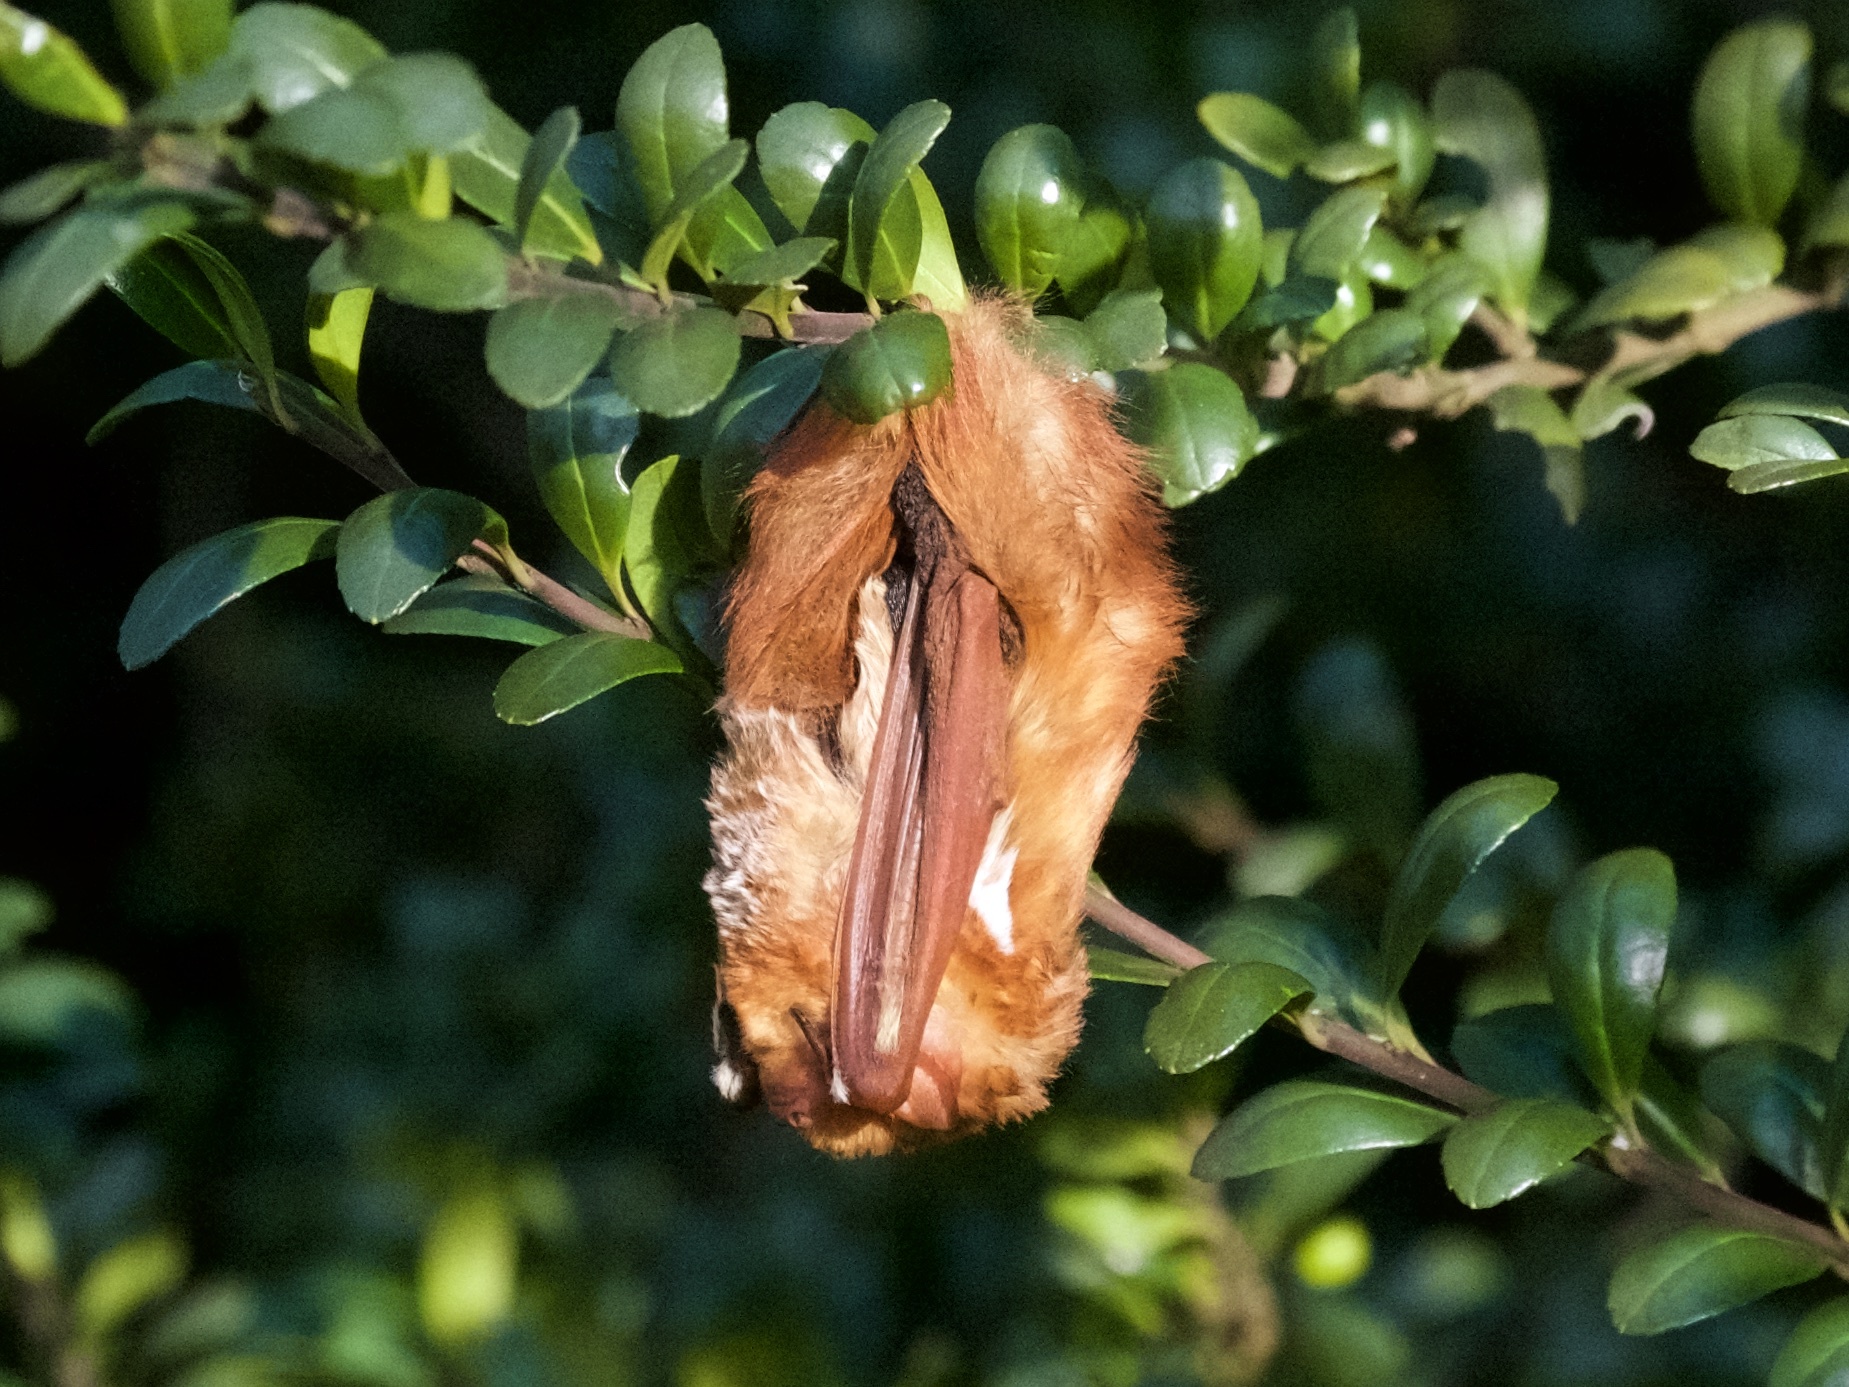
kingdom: Animalia
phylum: Chordata
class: Mammalia
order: Chiroptera
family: Vespertilionidae
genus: Lasiurus
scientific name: Lasiurus borealis
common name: Eastern red bat
